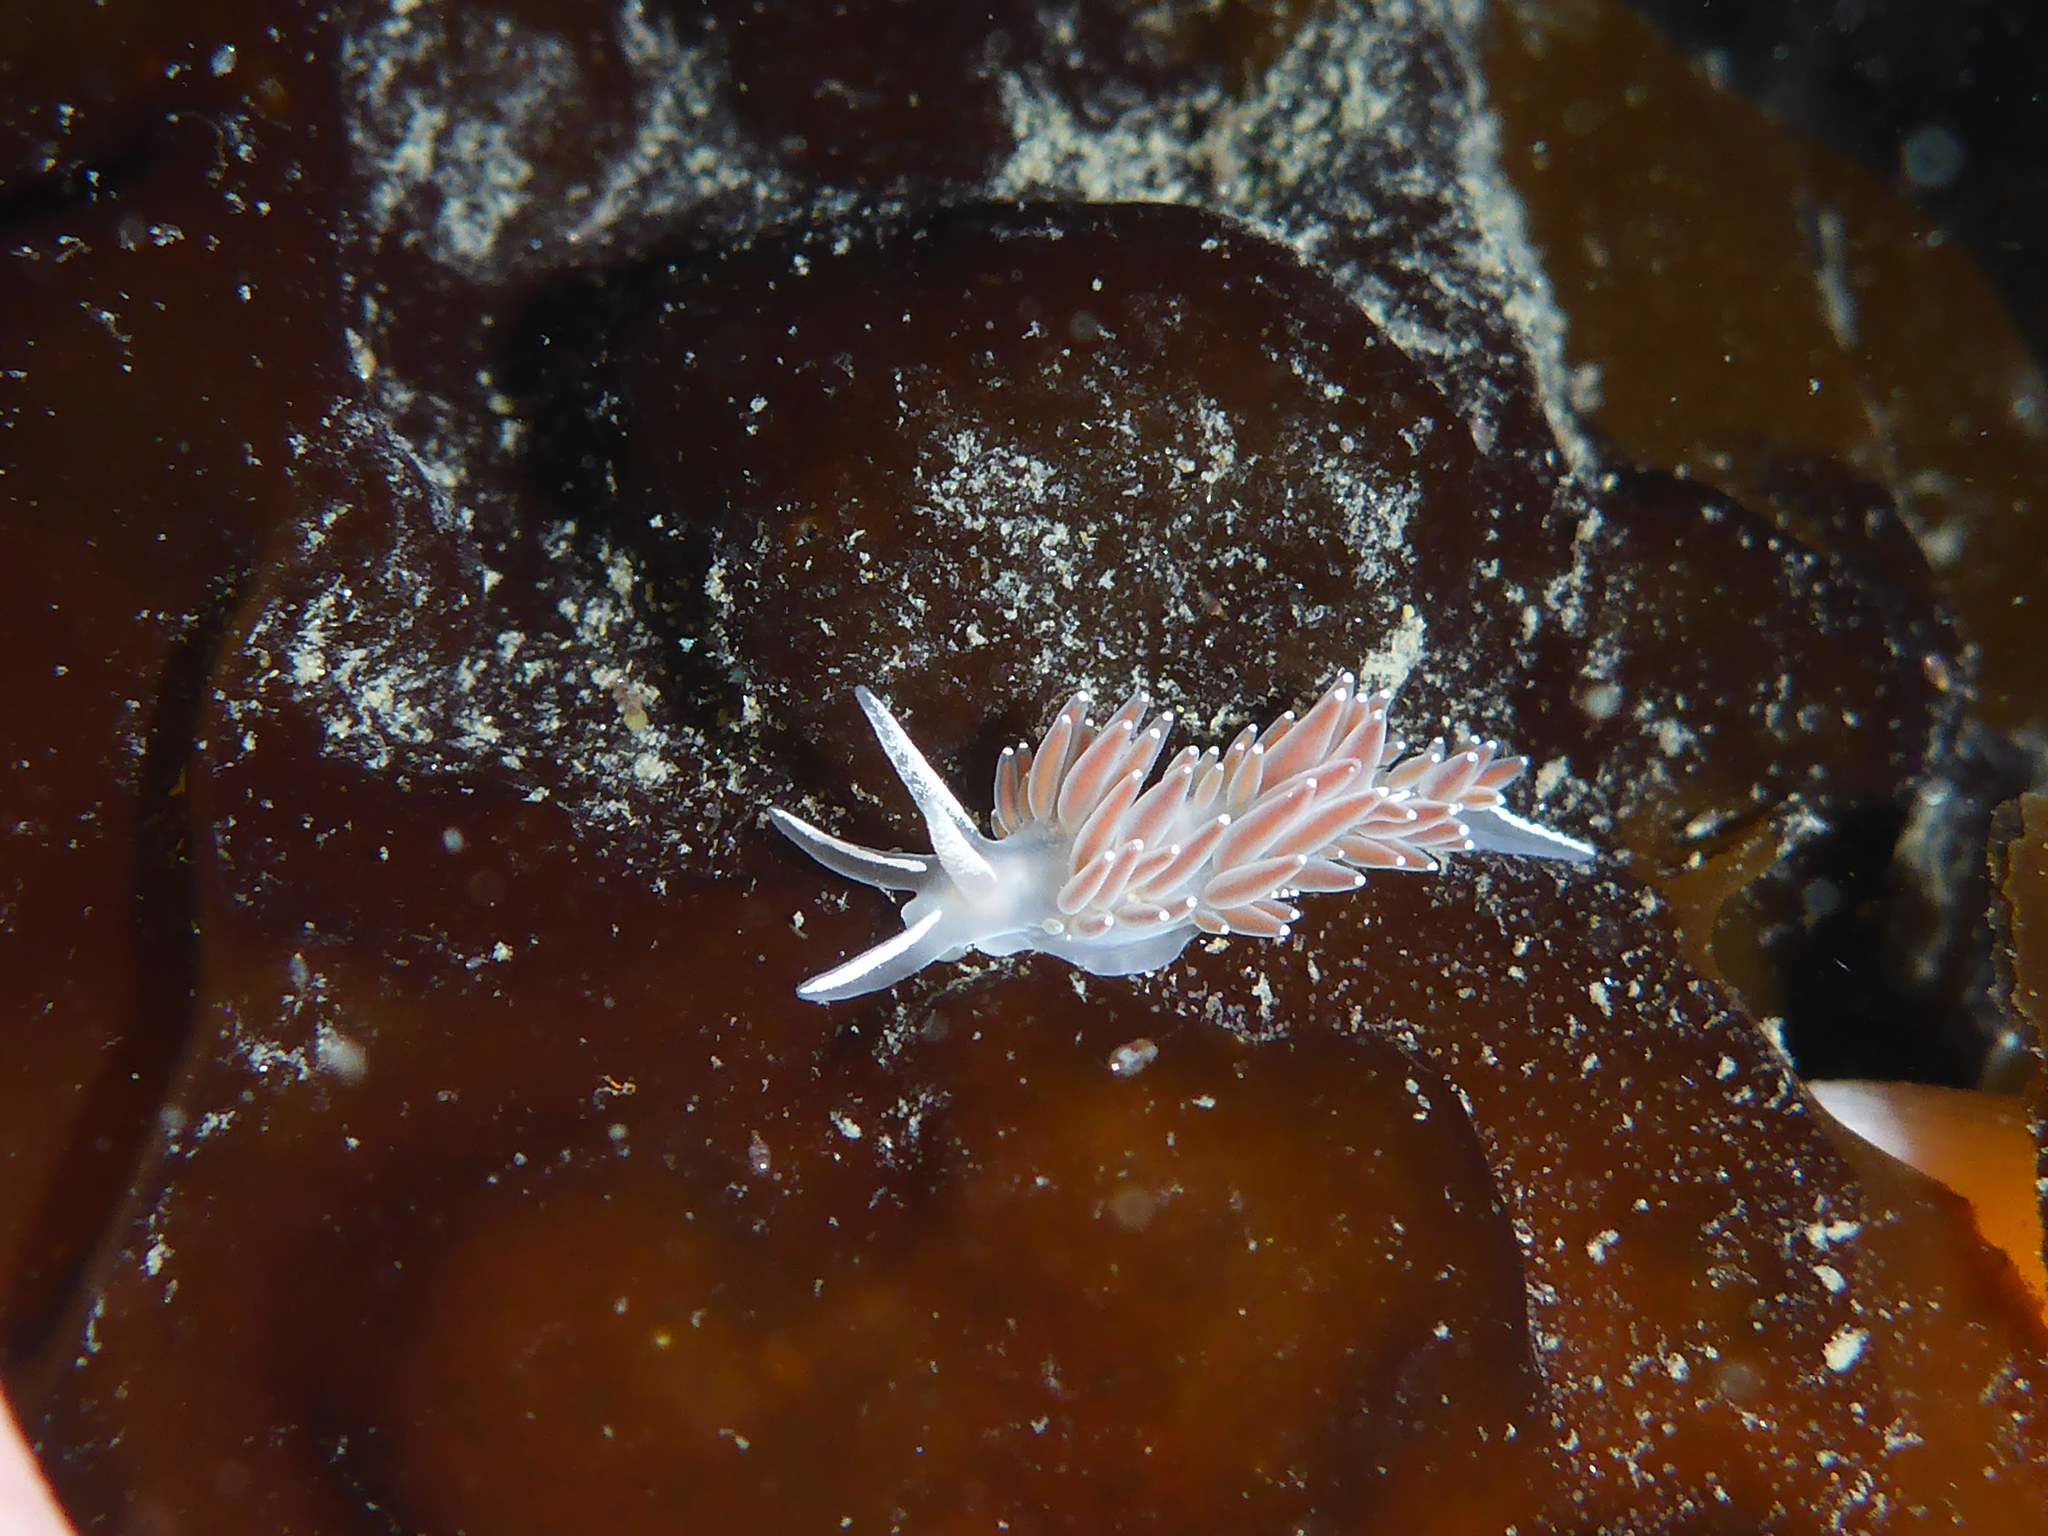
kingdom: Animalia
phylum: Mollusca
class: Gastropoda
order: Nudibranchia
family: Coryphellidae
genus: Coryphella
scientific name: Coryphella verrucosa
